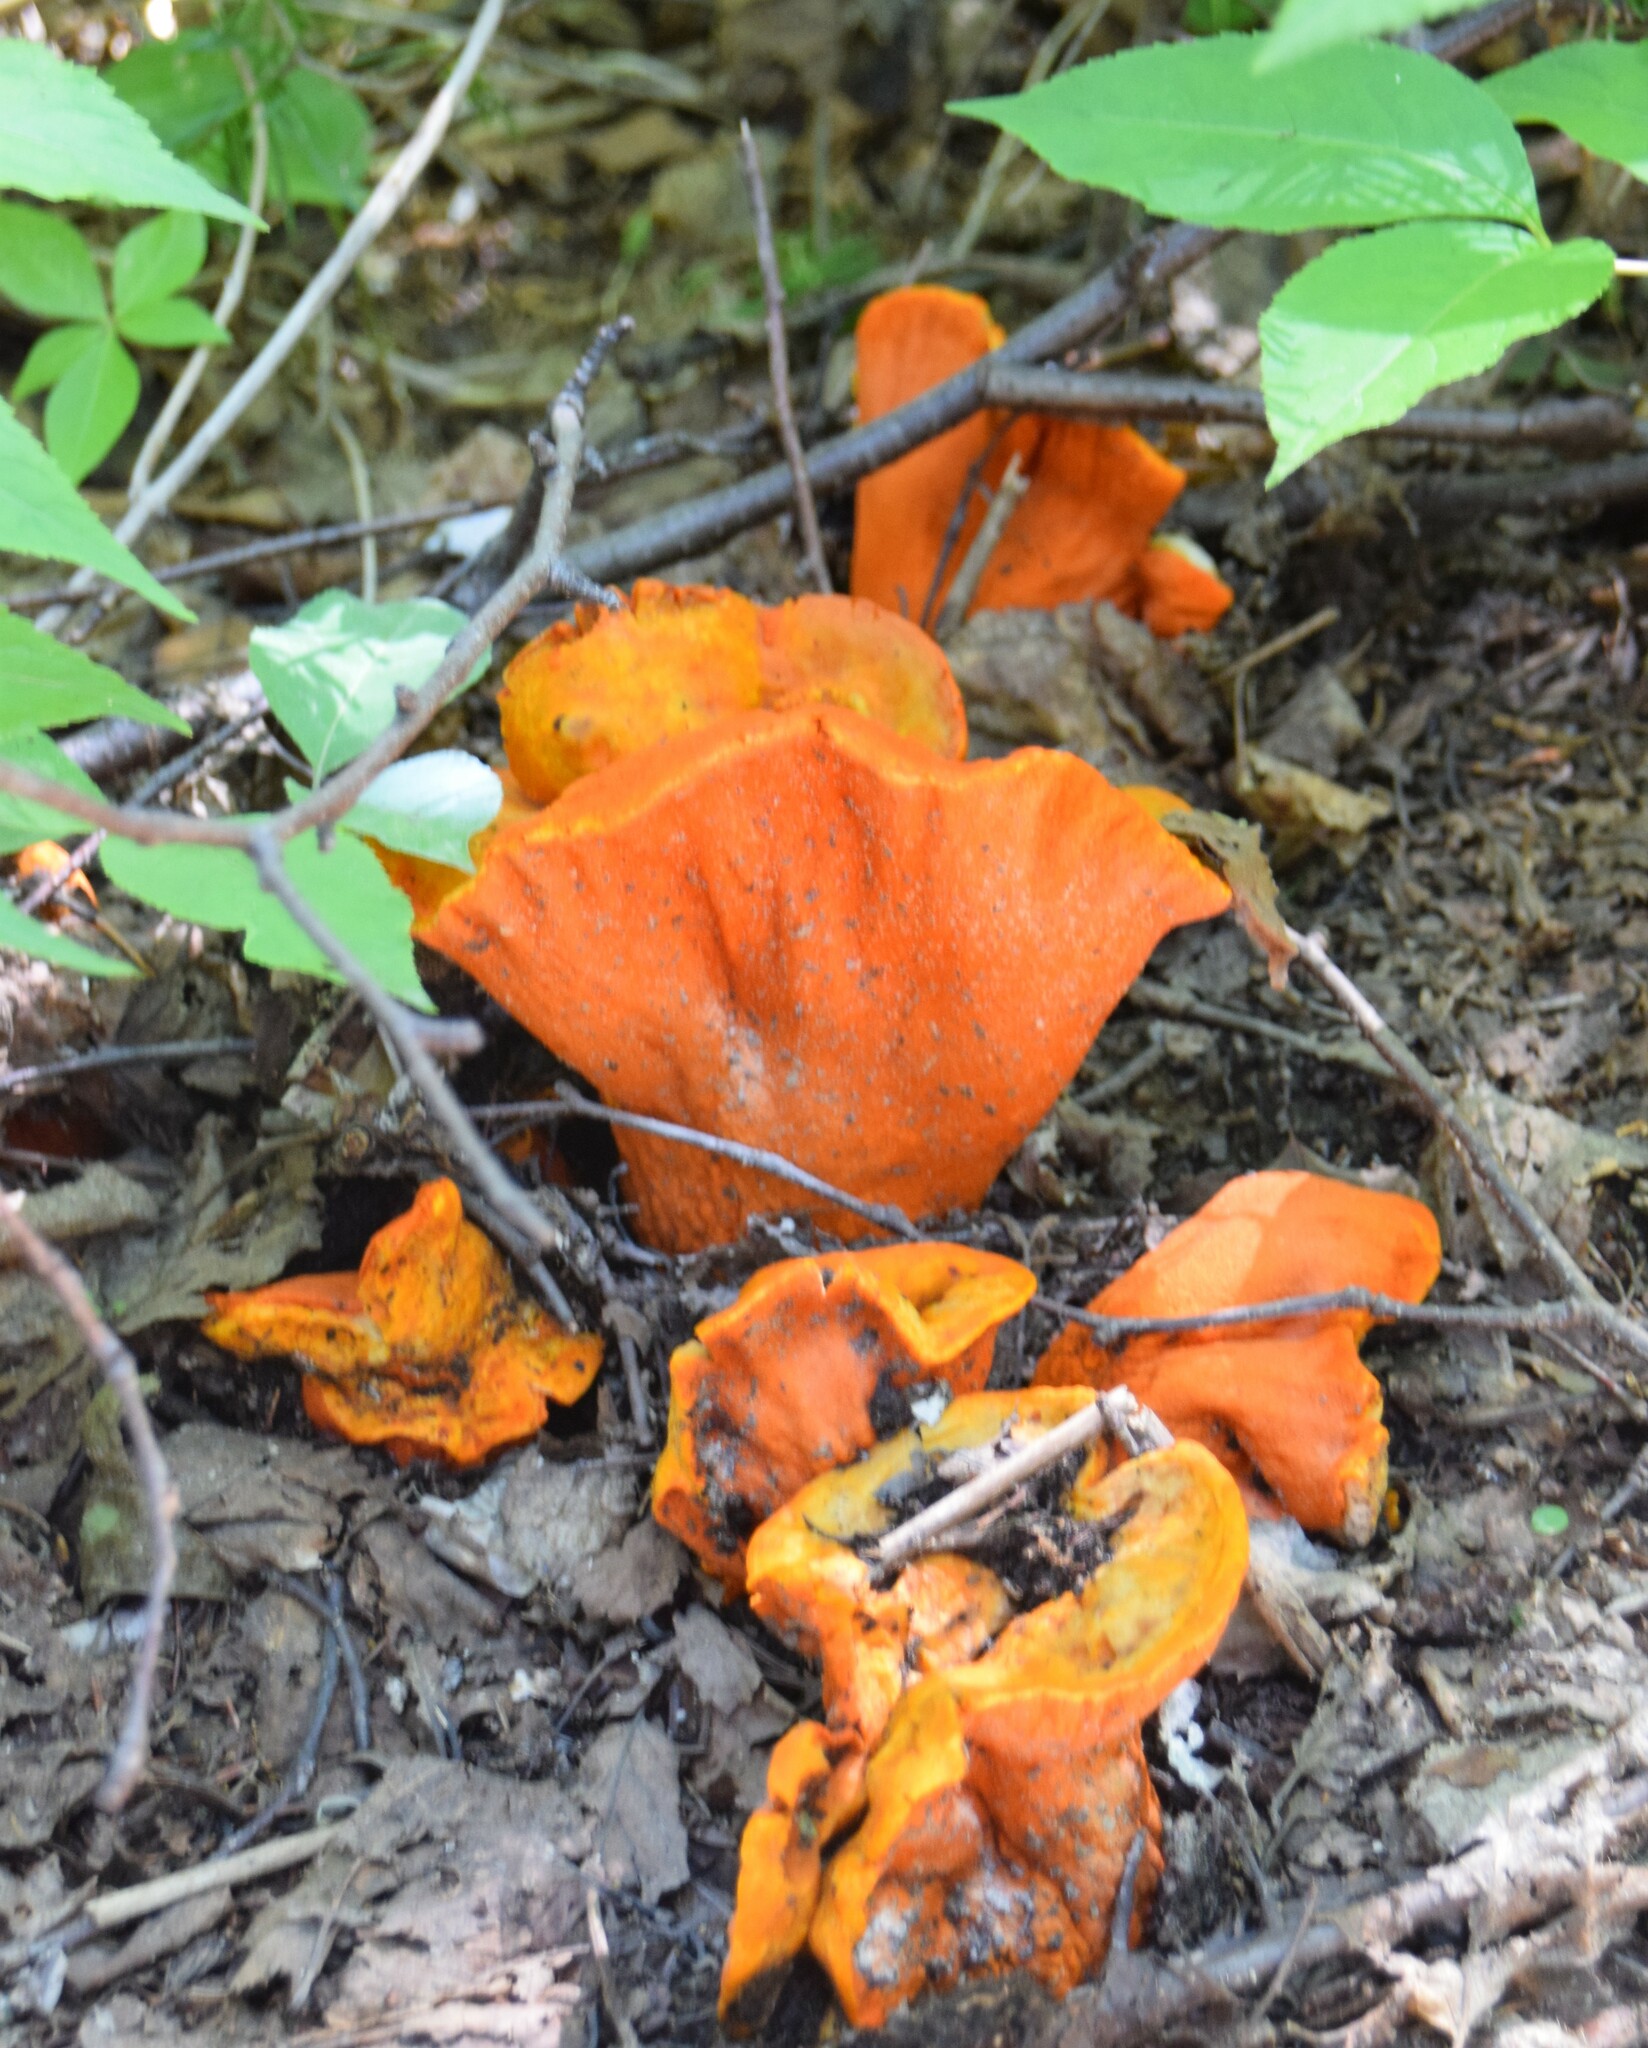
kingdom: Fungi
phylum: Ascomycota
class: Sordariomycetes
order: Hypocreales
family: Hypocreaceae
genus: Hypomyces
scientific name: Hypomyces lactifluorum
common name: Lobster mushroom
